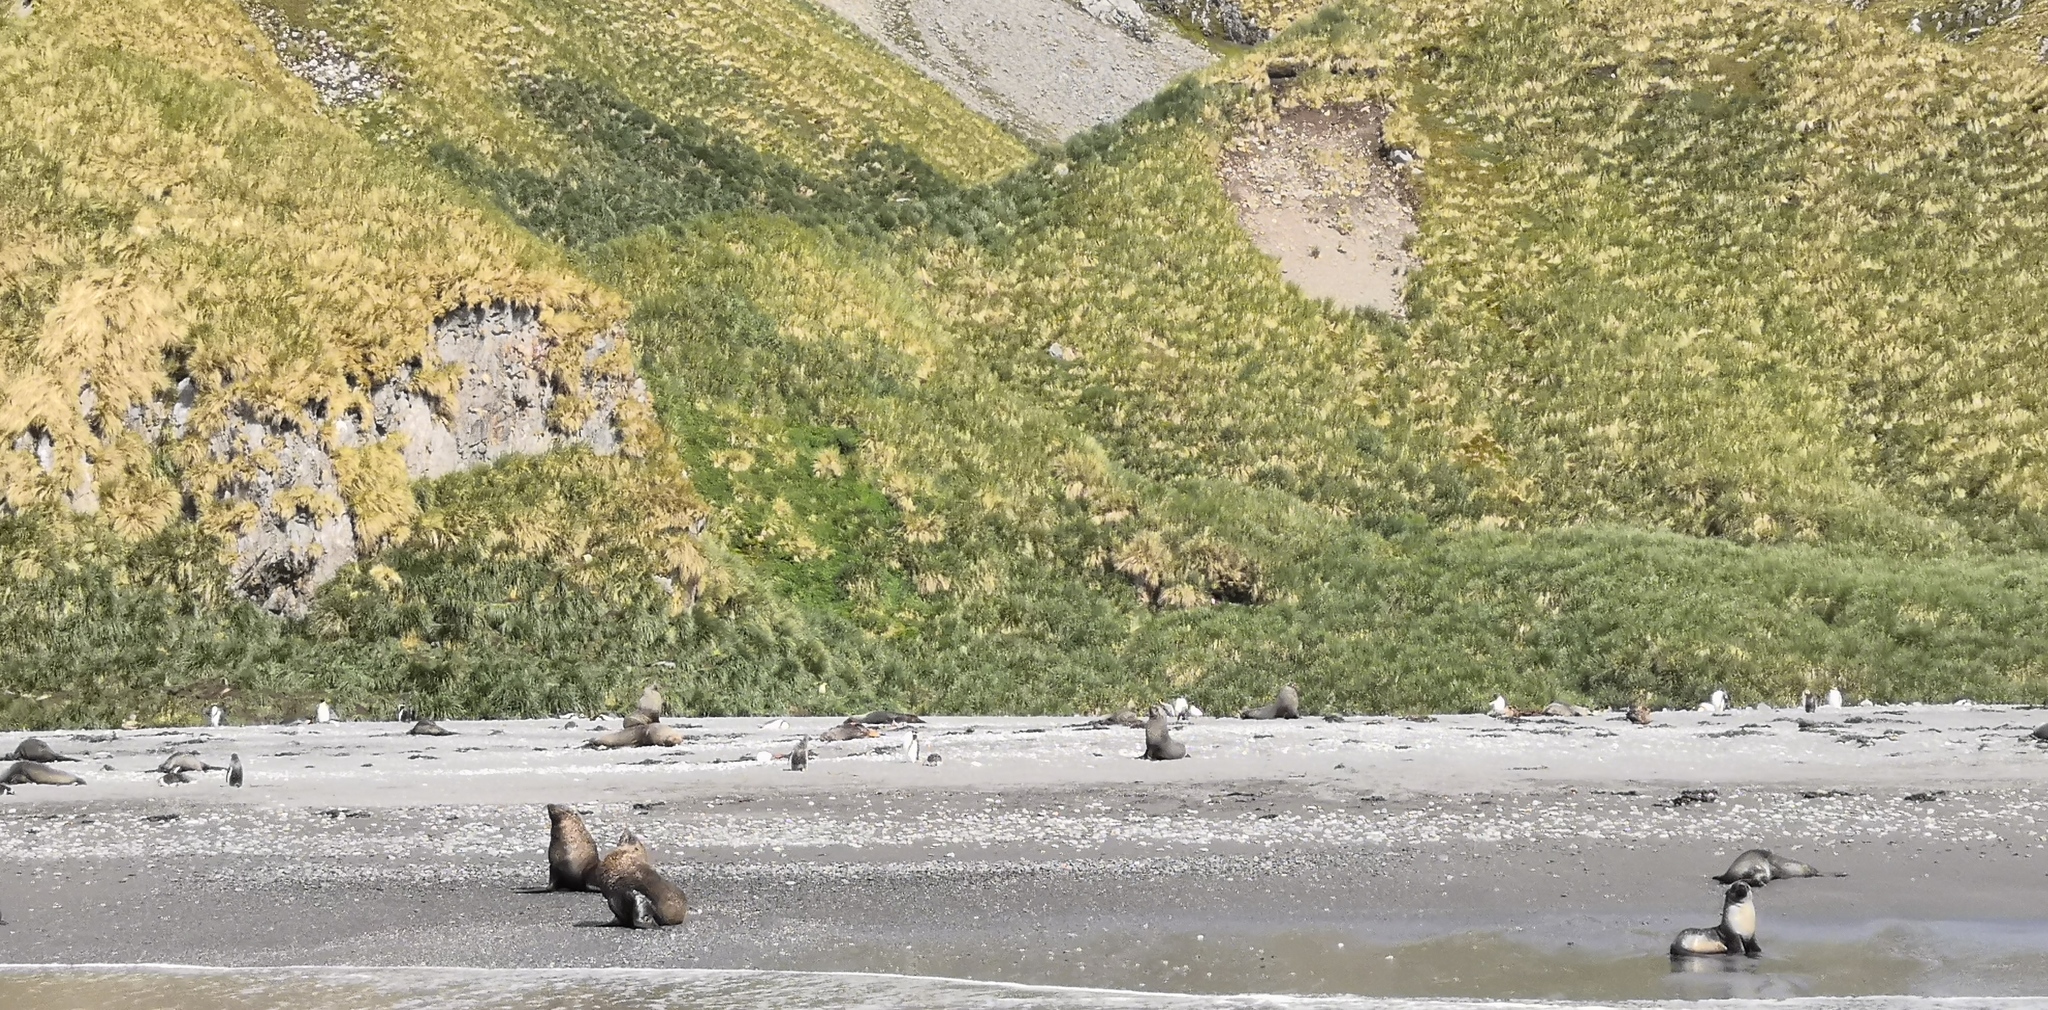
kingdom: Animalia
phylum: Chordata
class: Mammalia
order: Carnivora
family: Otariidae
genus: Arctocephalus
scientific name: Arctocephalus gazella
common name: Antarctic fur seal
